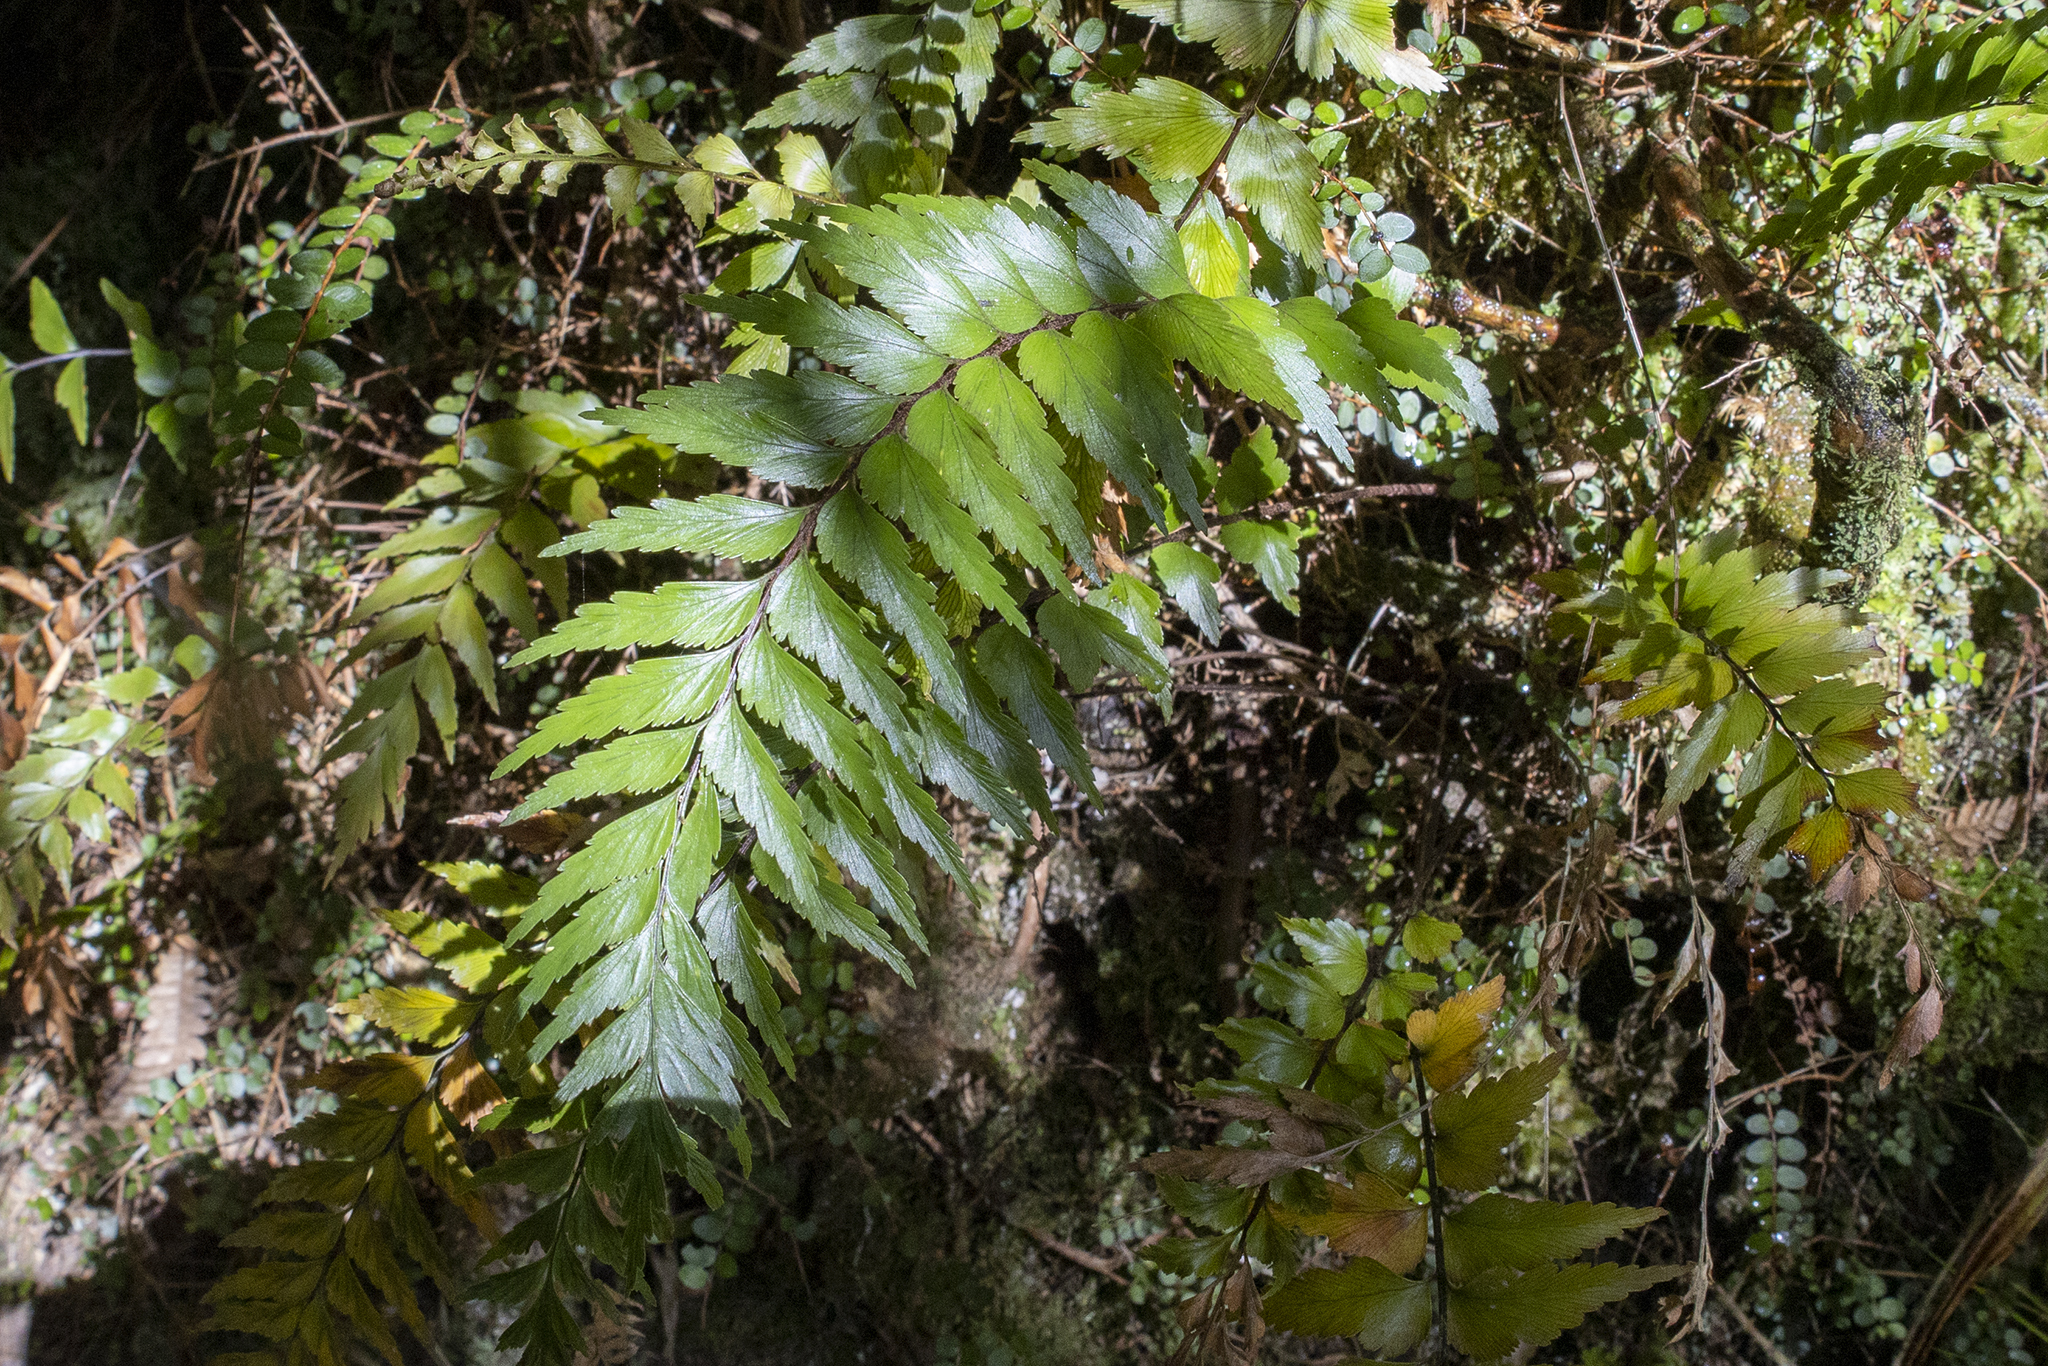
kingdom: Plantae
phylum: Tracheophyta
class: Polypodiopsida
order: Polypodiales
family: Aspleniaceae
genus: Asplenium
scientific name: Asplenium polyodon
